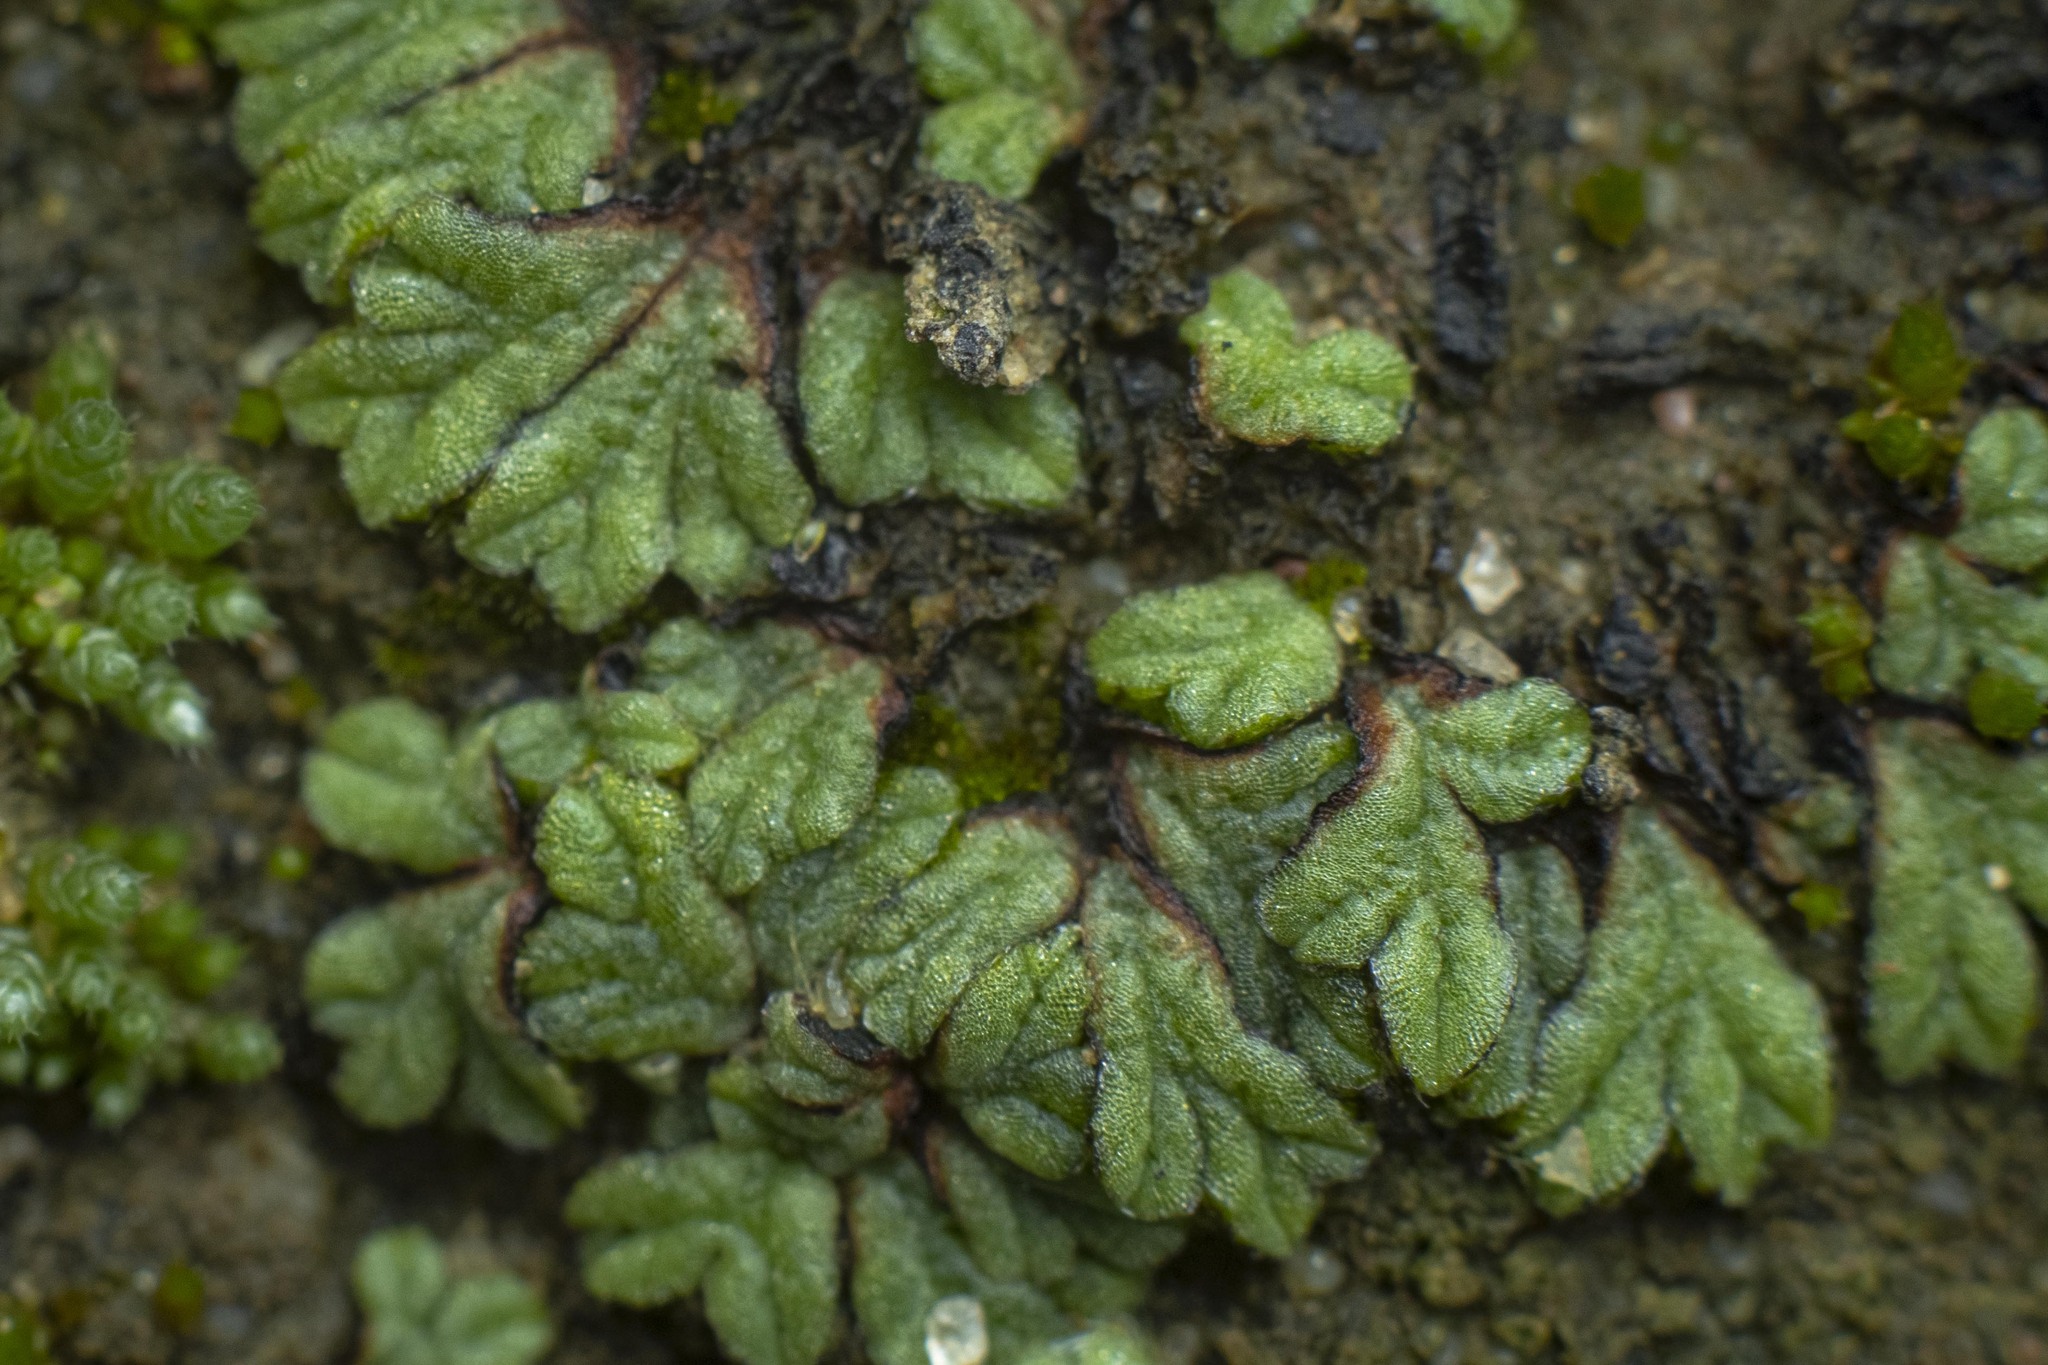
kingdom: Plantae
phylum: Marchantiophyta
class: Marchantiopsida
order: Marchantiales
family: Ricciaceae
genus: Riccia
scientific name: Riccia nigrella
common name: Black crystalwort
